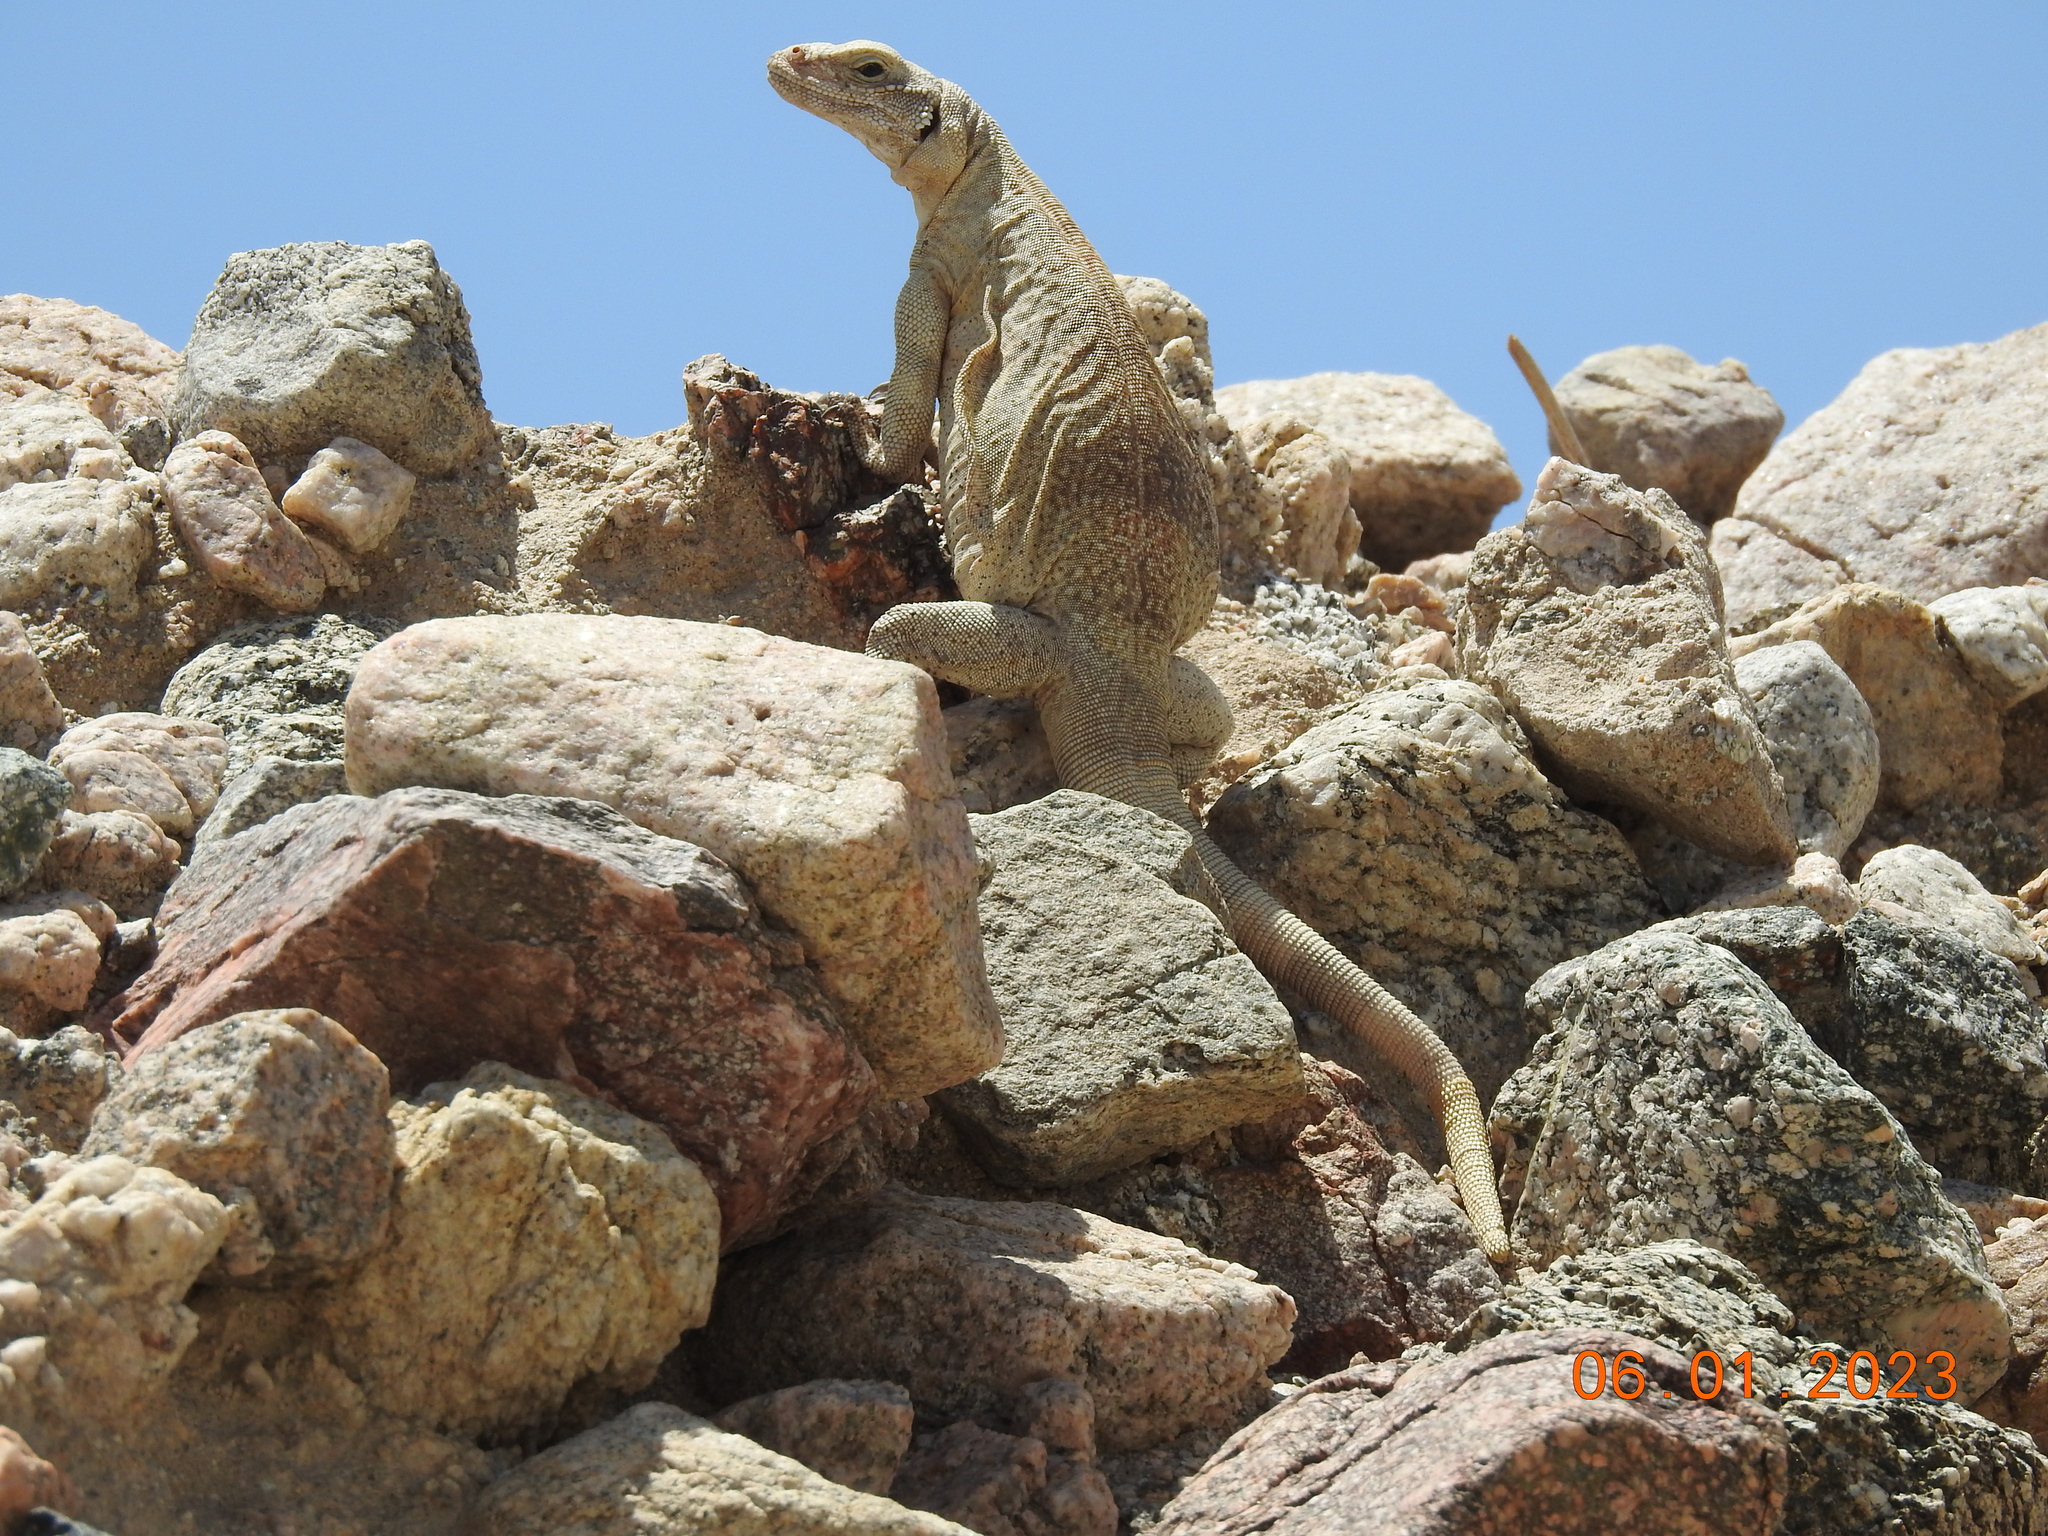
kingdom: Animalia
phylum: Chordata
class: Squamata
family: Iguanidae
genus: Sauromalus
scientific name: Sauromalus ater
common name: Northern chuckwalla
